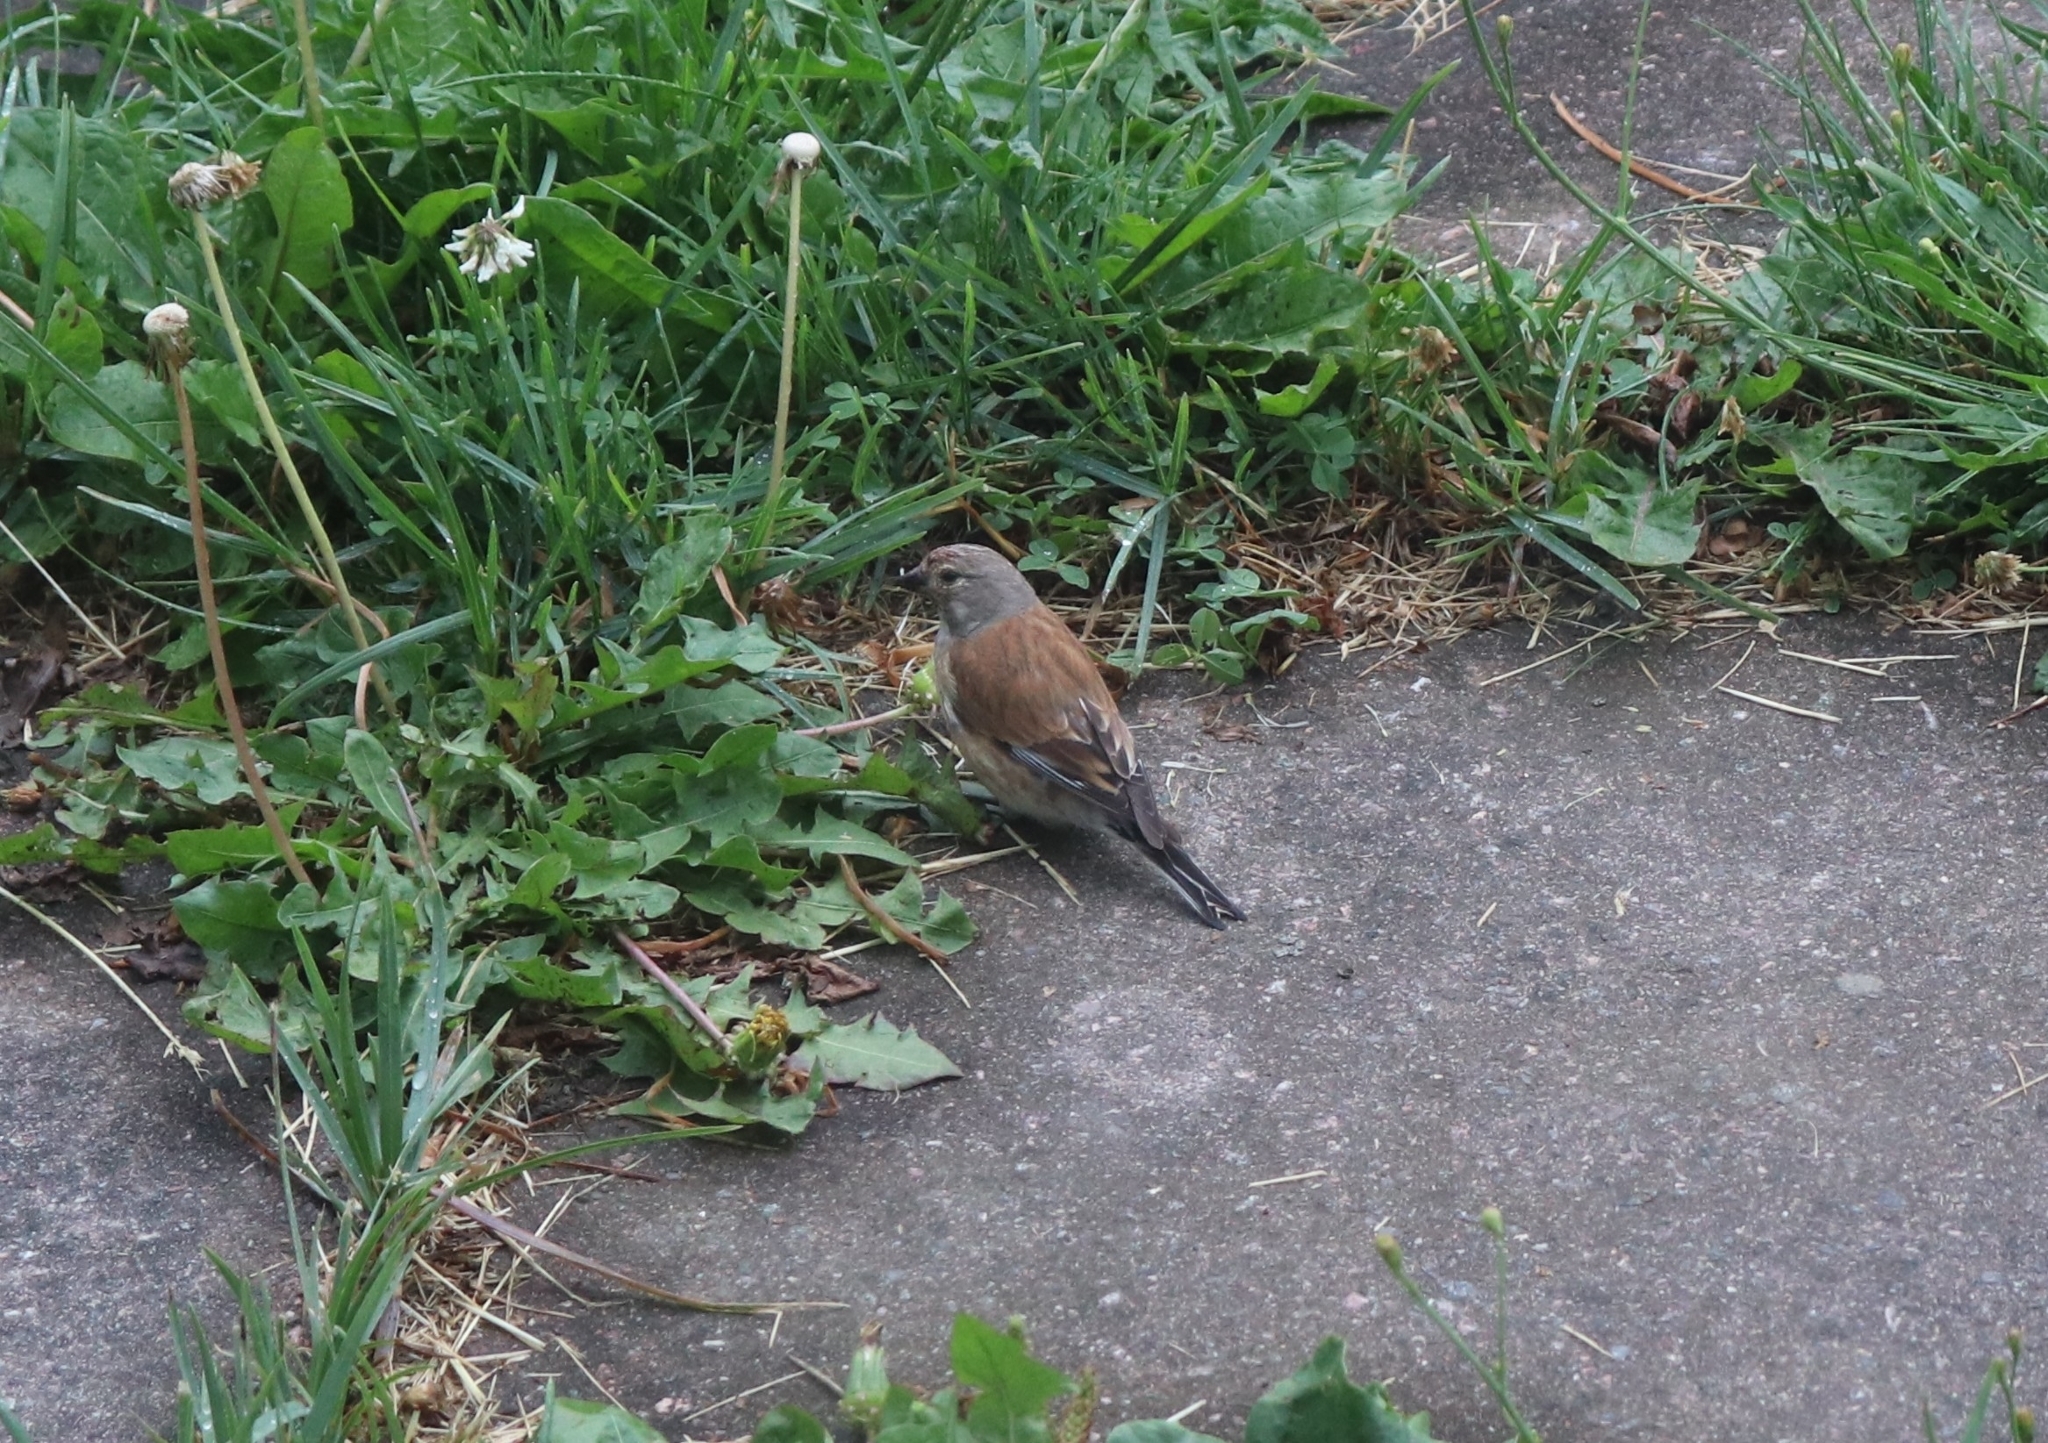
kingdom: Animalia
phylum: Chordata
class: Aves
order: Passeriformes
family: Fringillidae
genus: Linaria
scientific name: Linaria cannabina
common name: Common linnet
